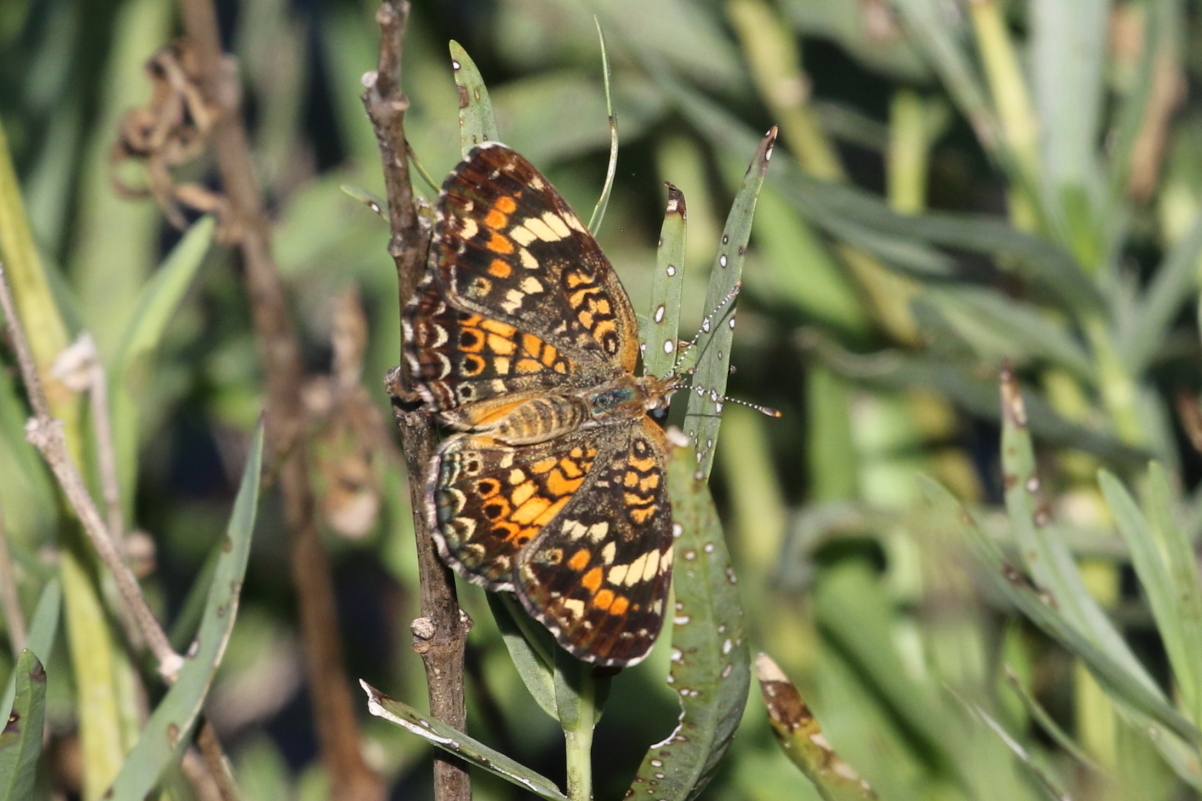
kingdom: Animalia
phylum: Arthropoda
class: Insecta
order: Lepidoptera
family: Nymphalidae
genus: Phyciodes
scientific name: Phyciodes phaon
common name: Phaon crescent
